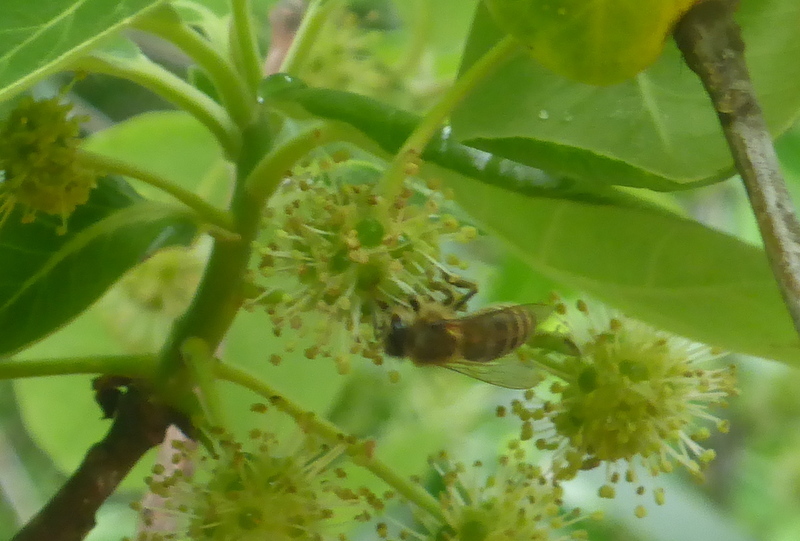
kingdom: Animalia
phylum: Arthropoda
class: Insecta
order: Hymenoptera
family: Apidae
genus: Apis
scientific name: Apis mellifera
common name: Honey bee
